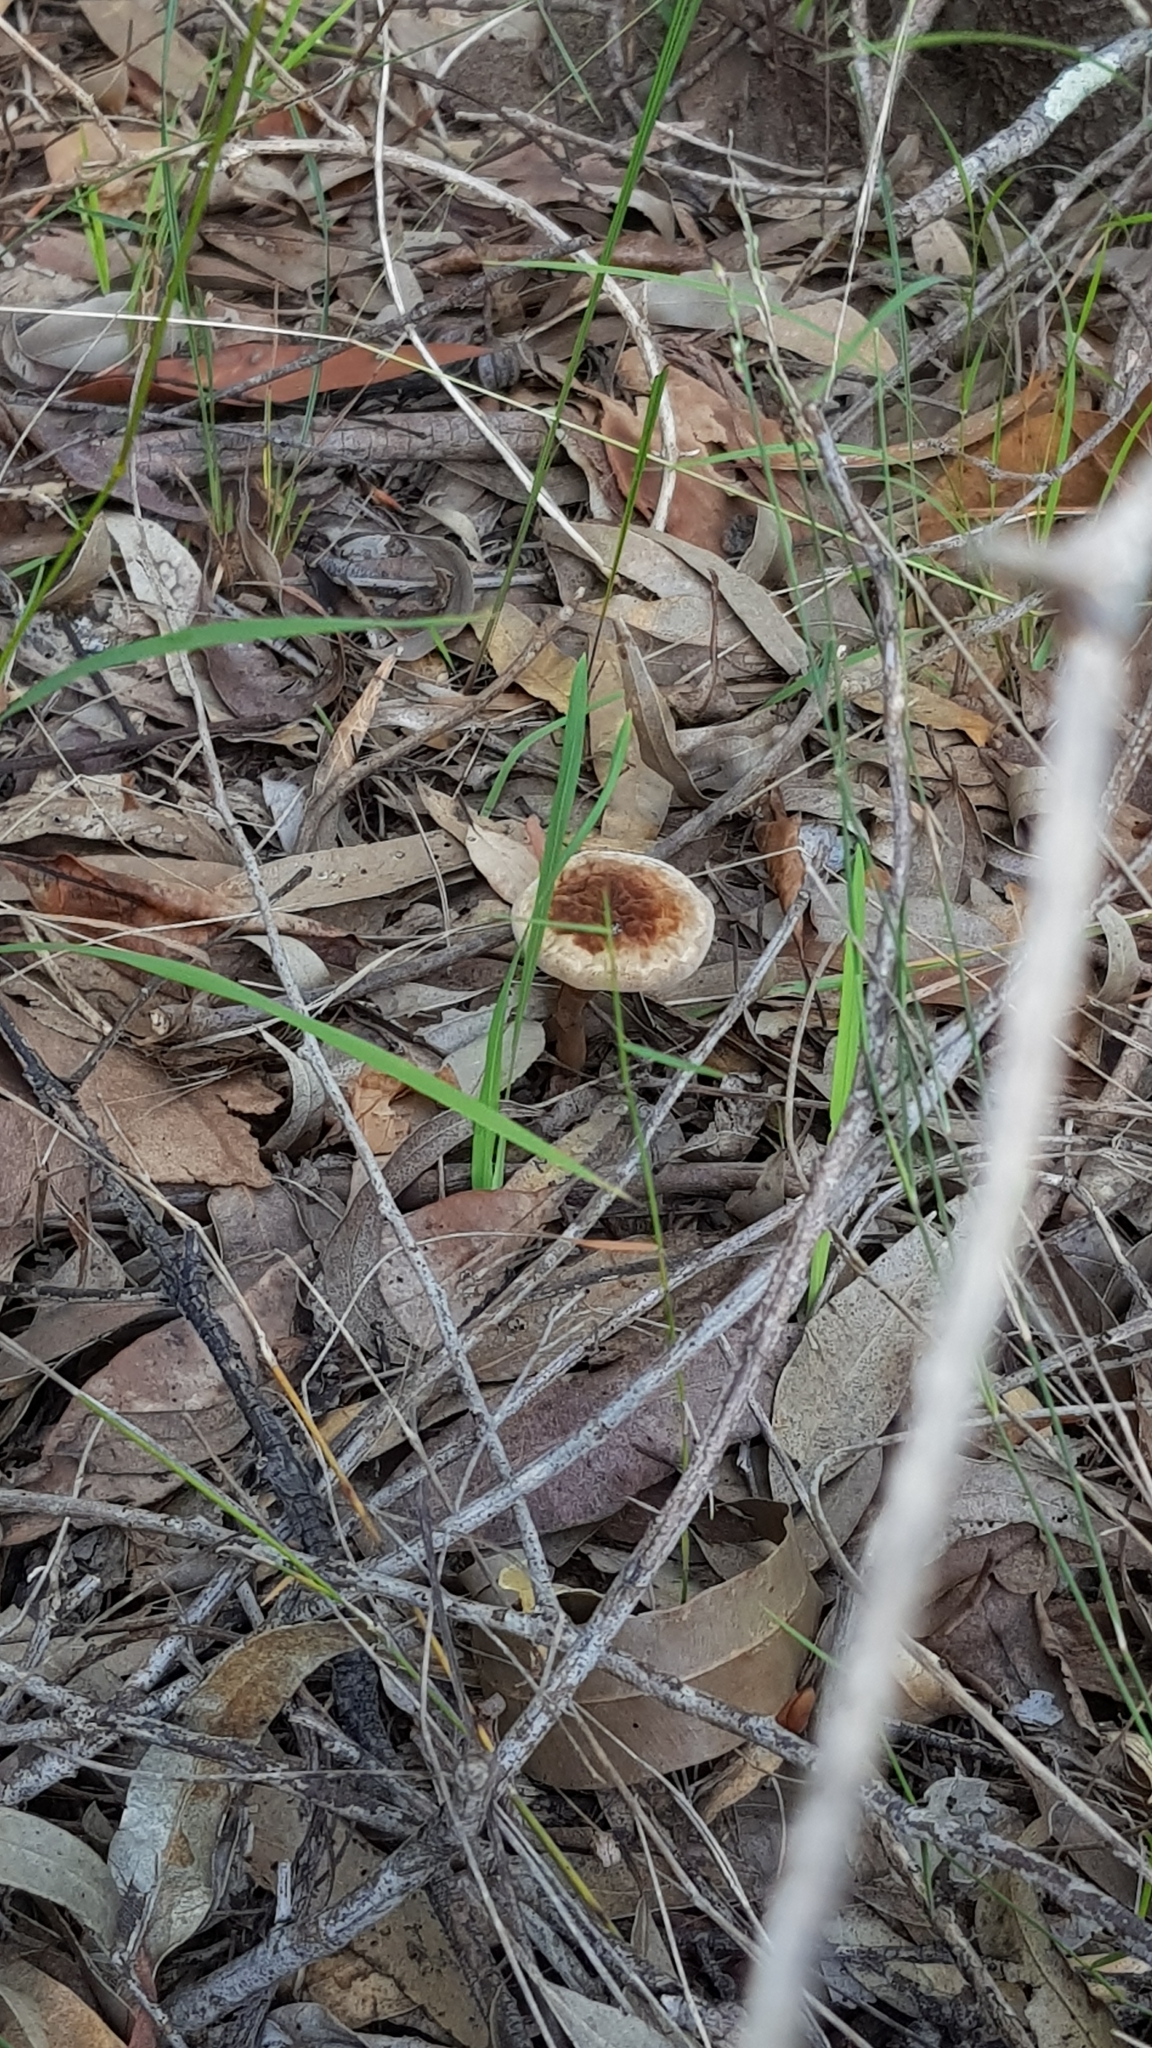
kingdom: Fungi
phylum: Basidiomycota
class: Agaricomycetes
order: Polyporales
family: Ganodermataceae
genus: Sanguinoderma
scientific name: Sanguinoderma rude
